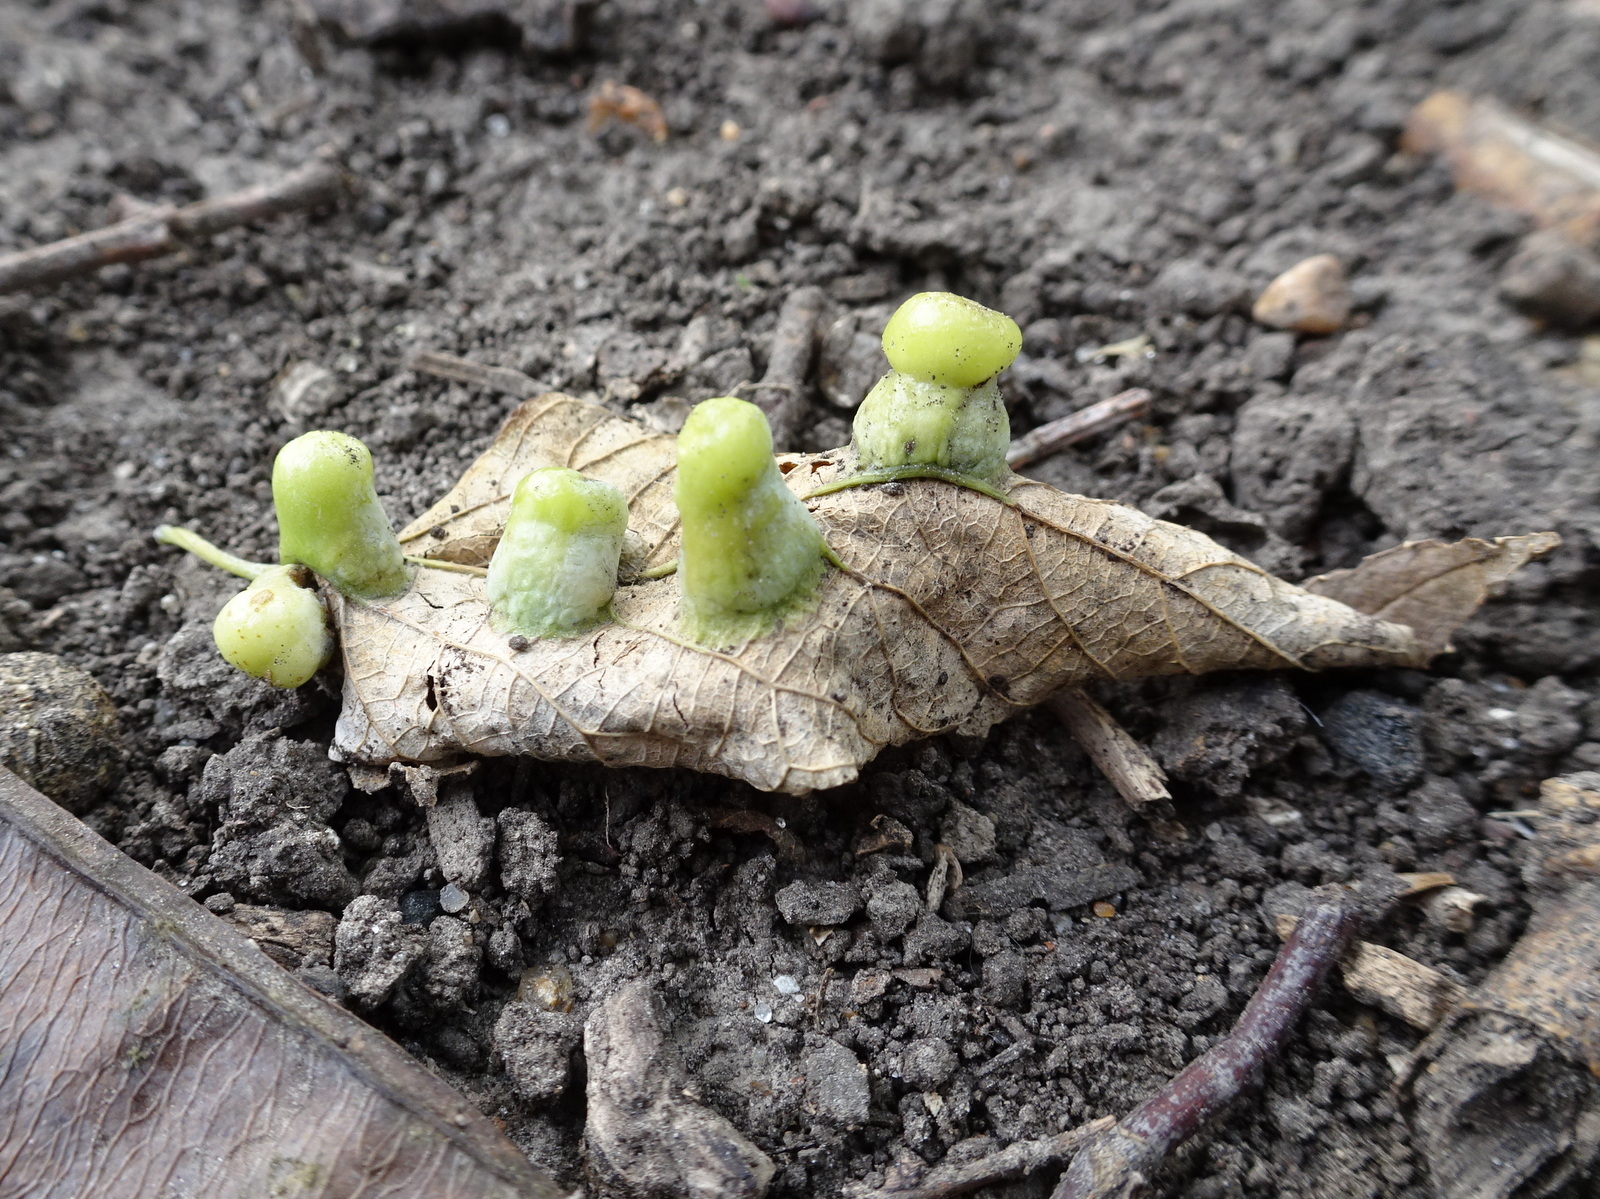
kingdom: Animalia
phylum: Arthropoda
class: Insecta
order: Hemiptera
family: Aphalaridae
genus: Pachypsylla
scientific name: Pachypsylla celtidismamma
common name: Hackberry nipplegall psyllid
